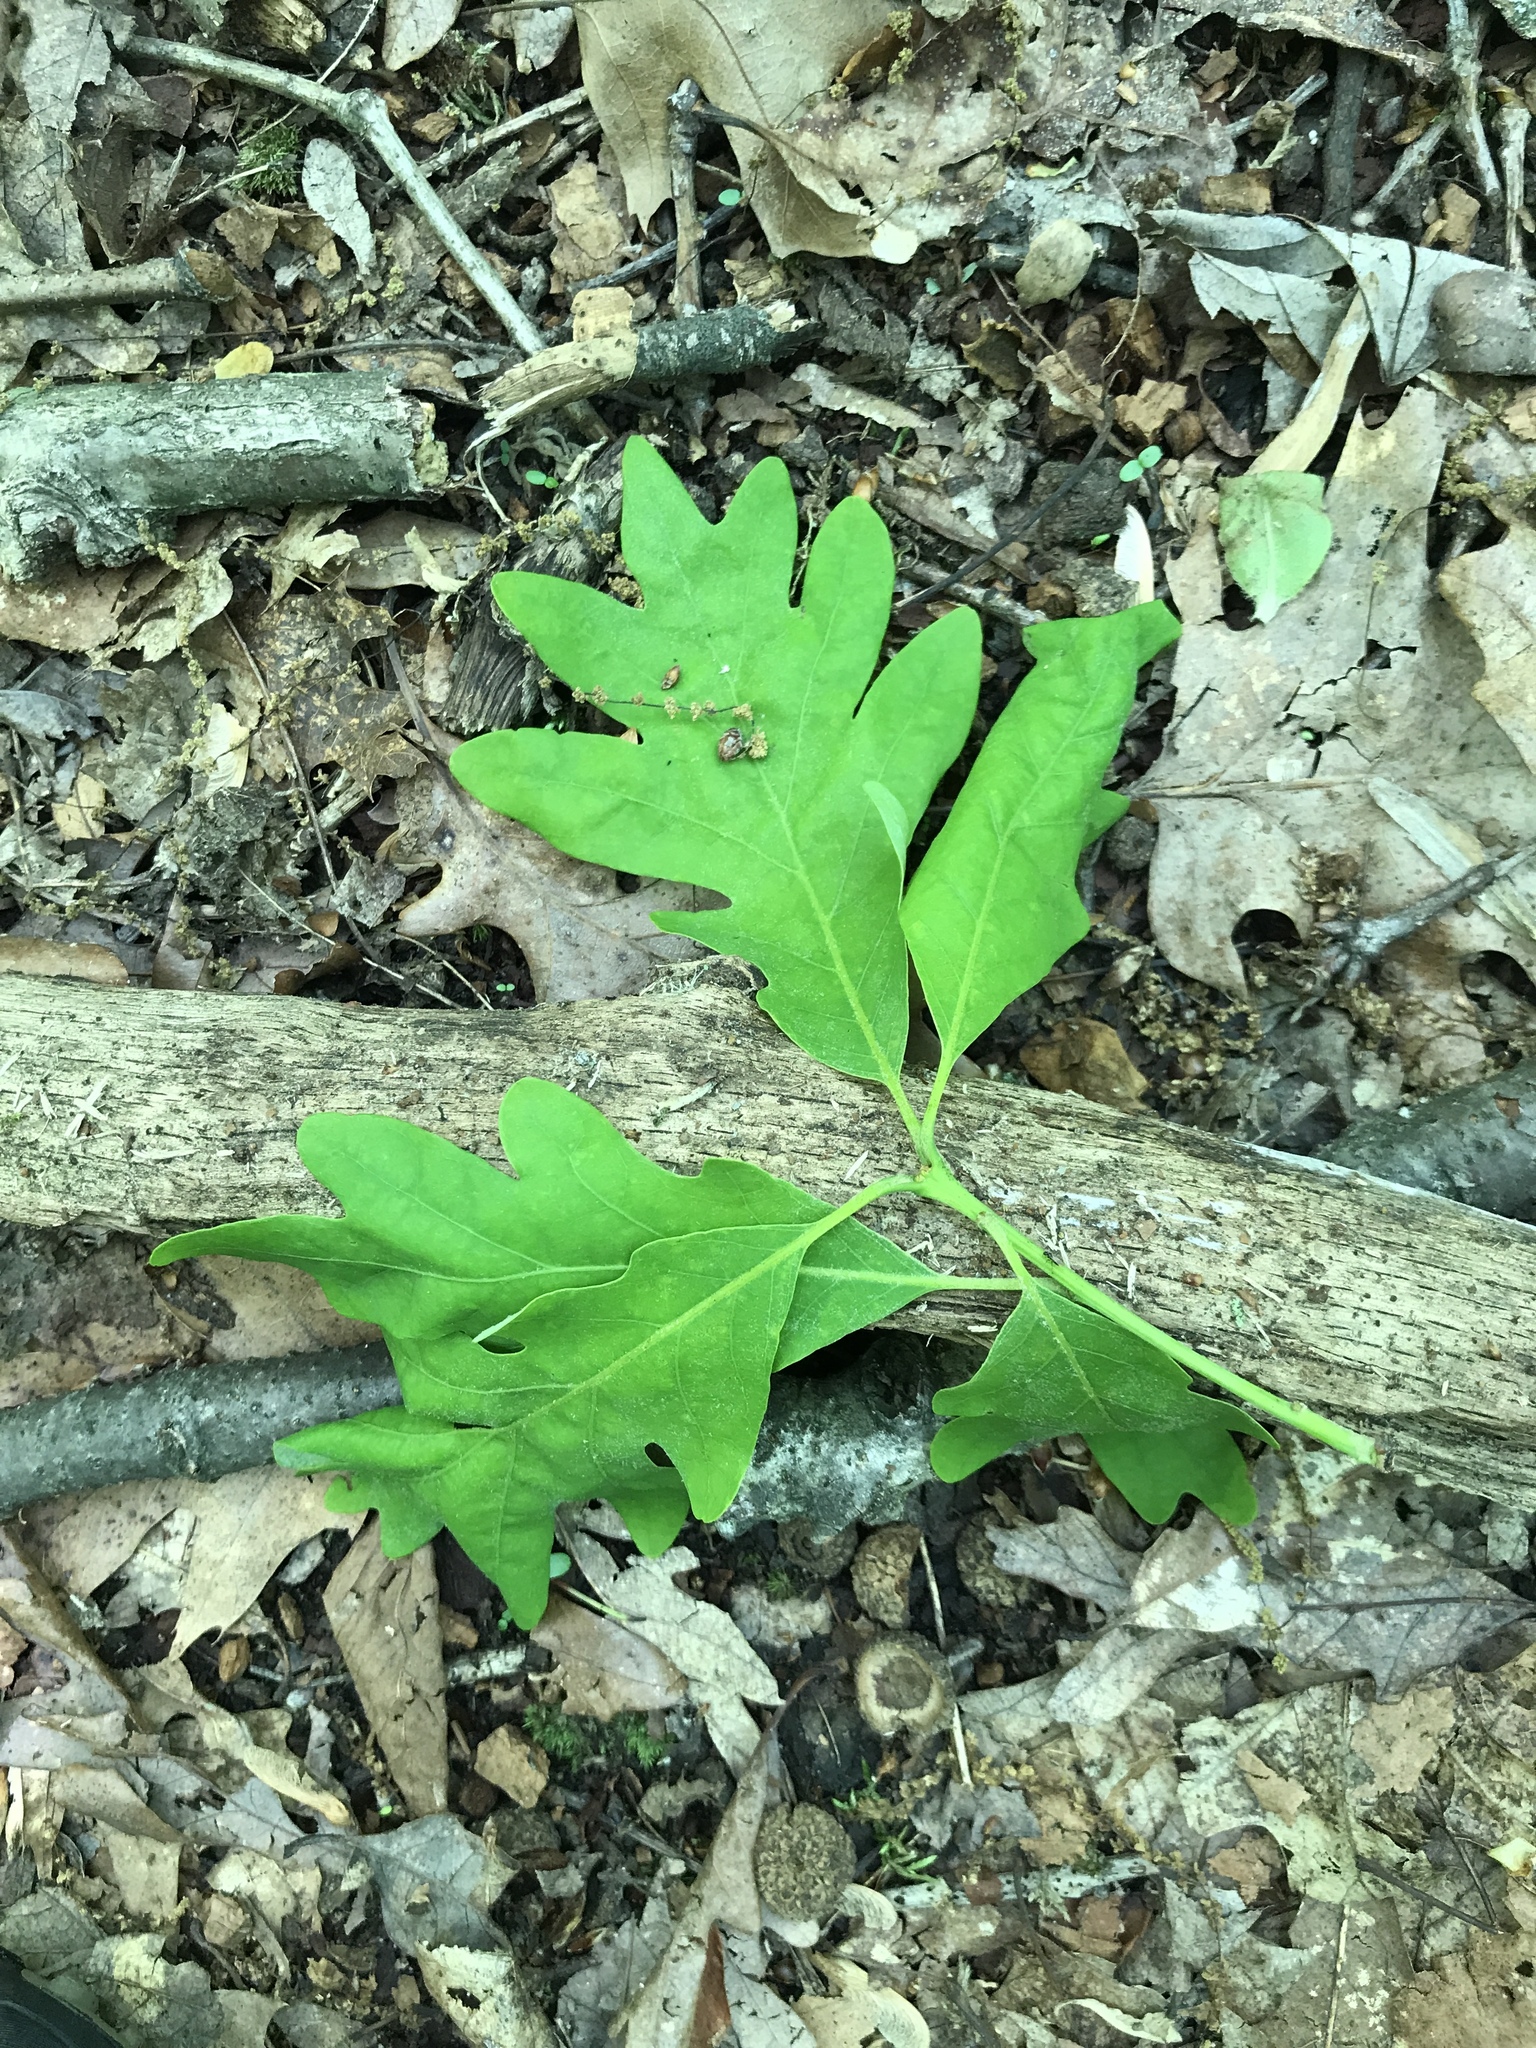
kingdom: Plantae
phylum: Tracheophyta
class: Magnoliopsida
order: Fagales
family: Fagaceae
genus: Quercus
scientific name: Quercus alba
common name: White oak
